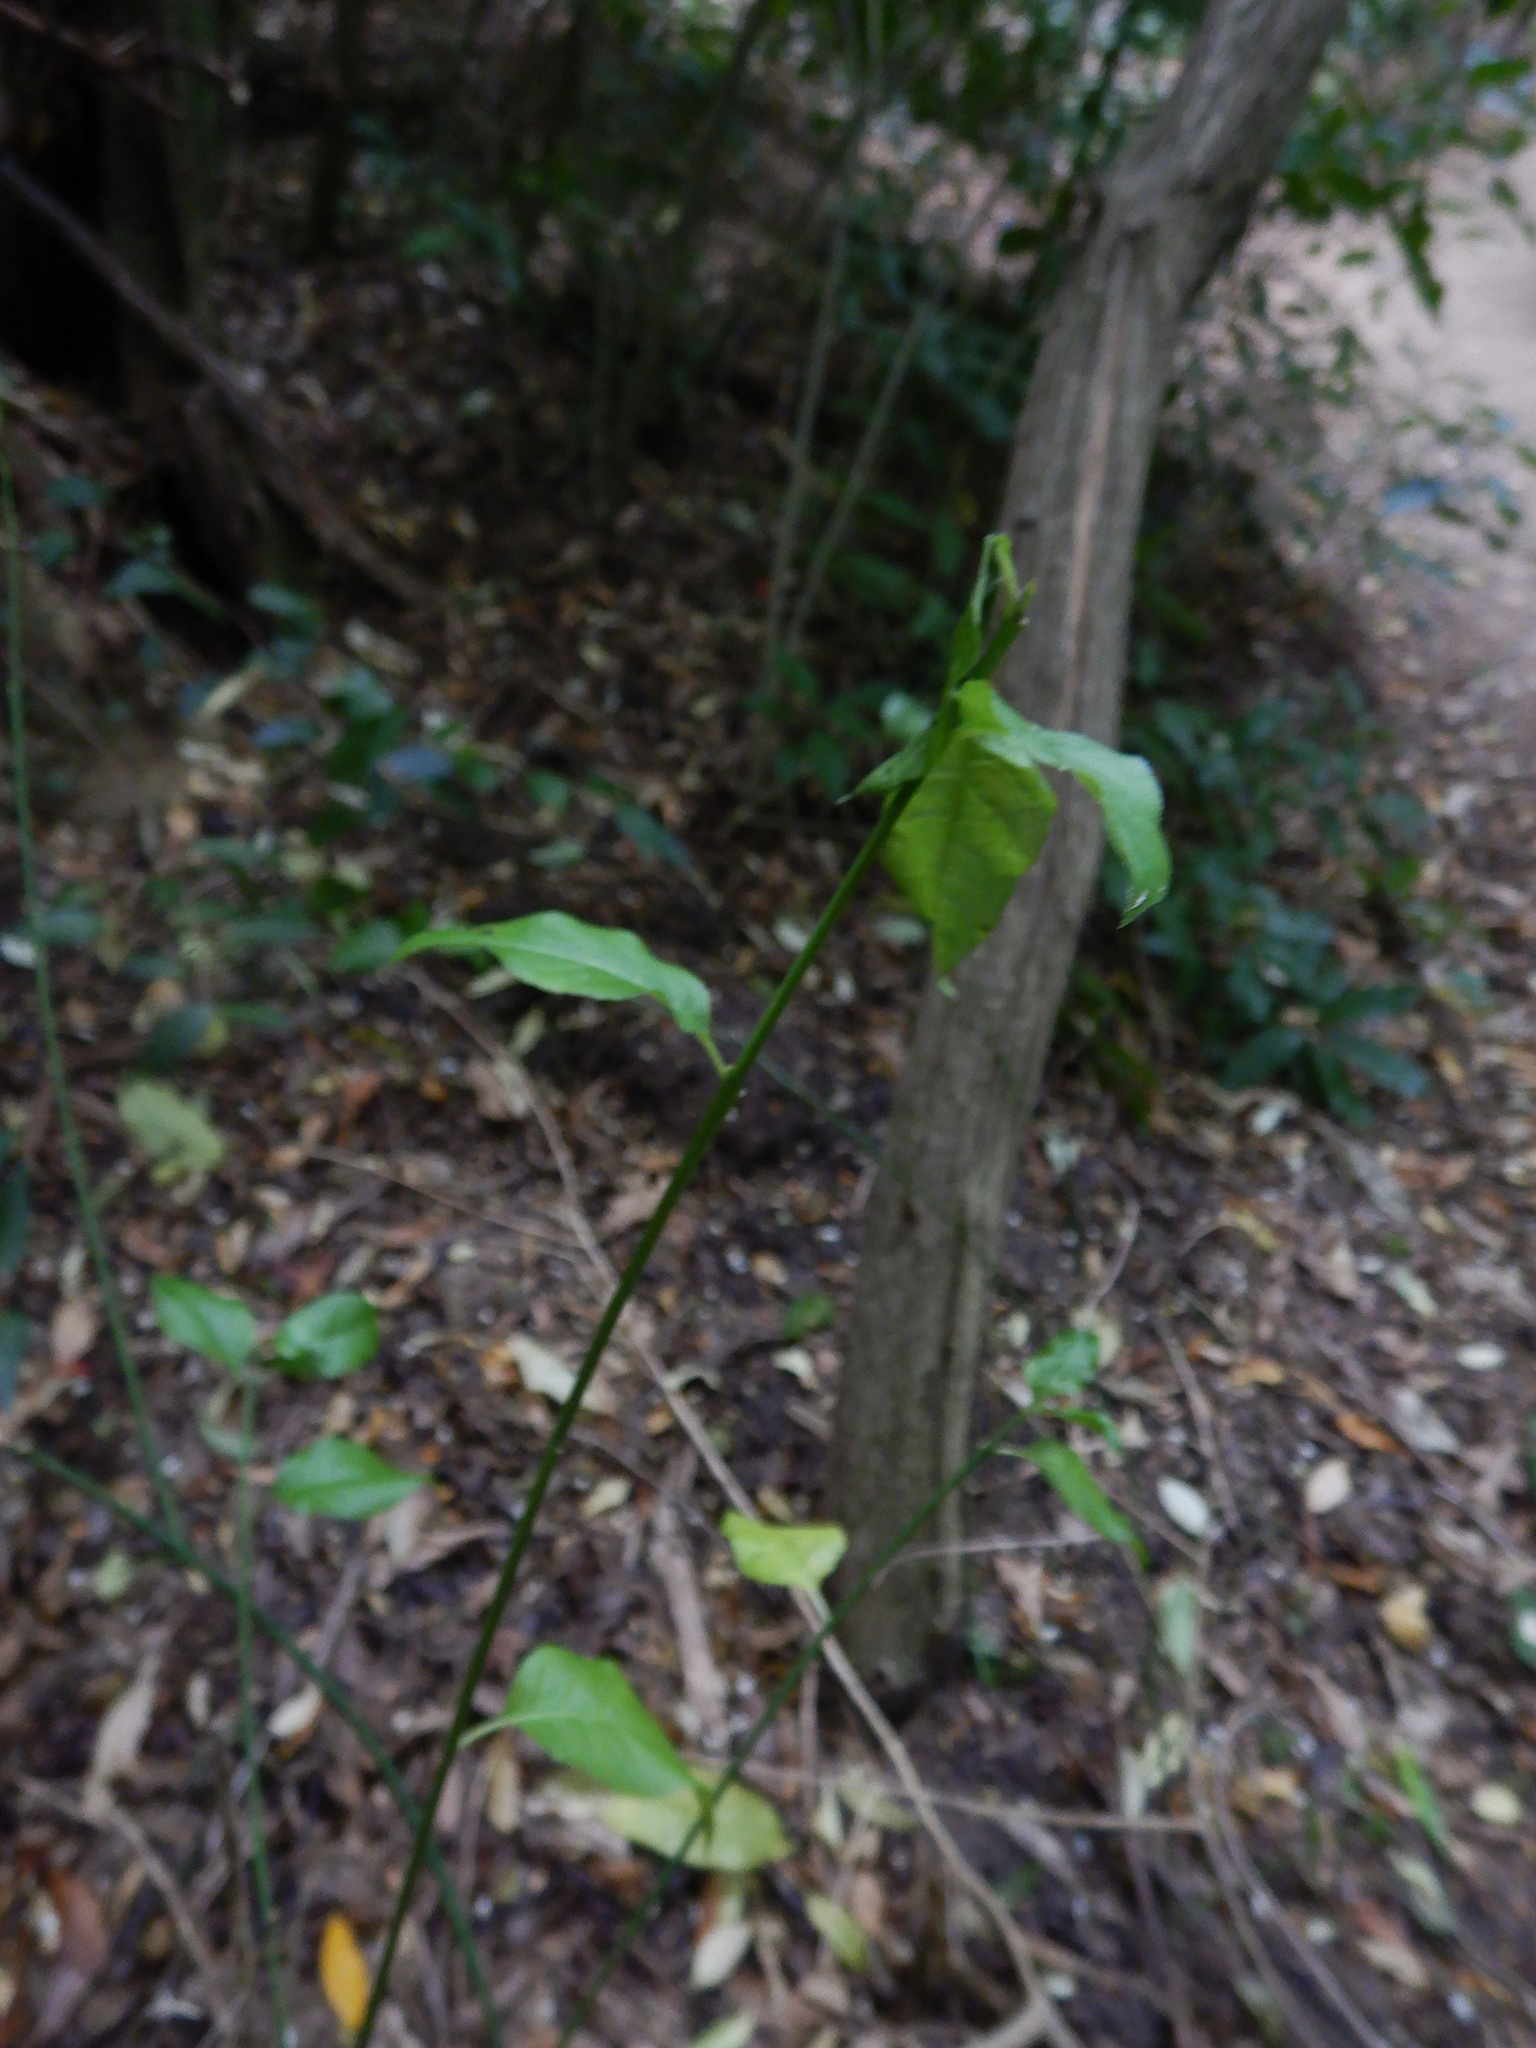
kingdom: Plantae
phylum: Tracheophyta
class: Magnoliopsida
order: Celastrales
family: Celastraceae
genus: Euonymus
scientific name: Euonymus europaeus
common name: Spindle
